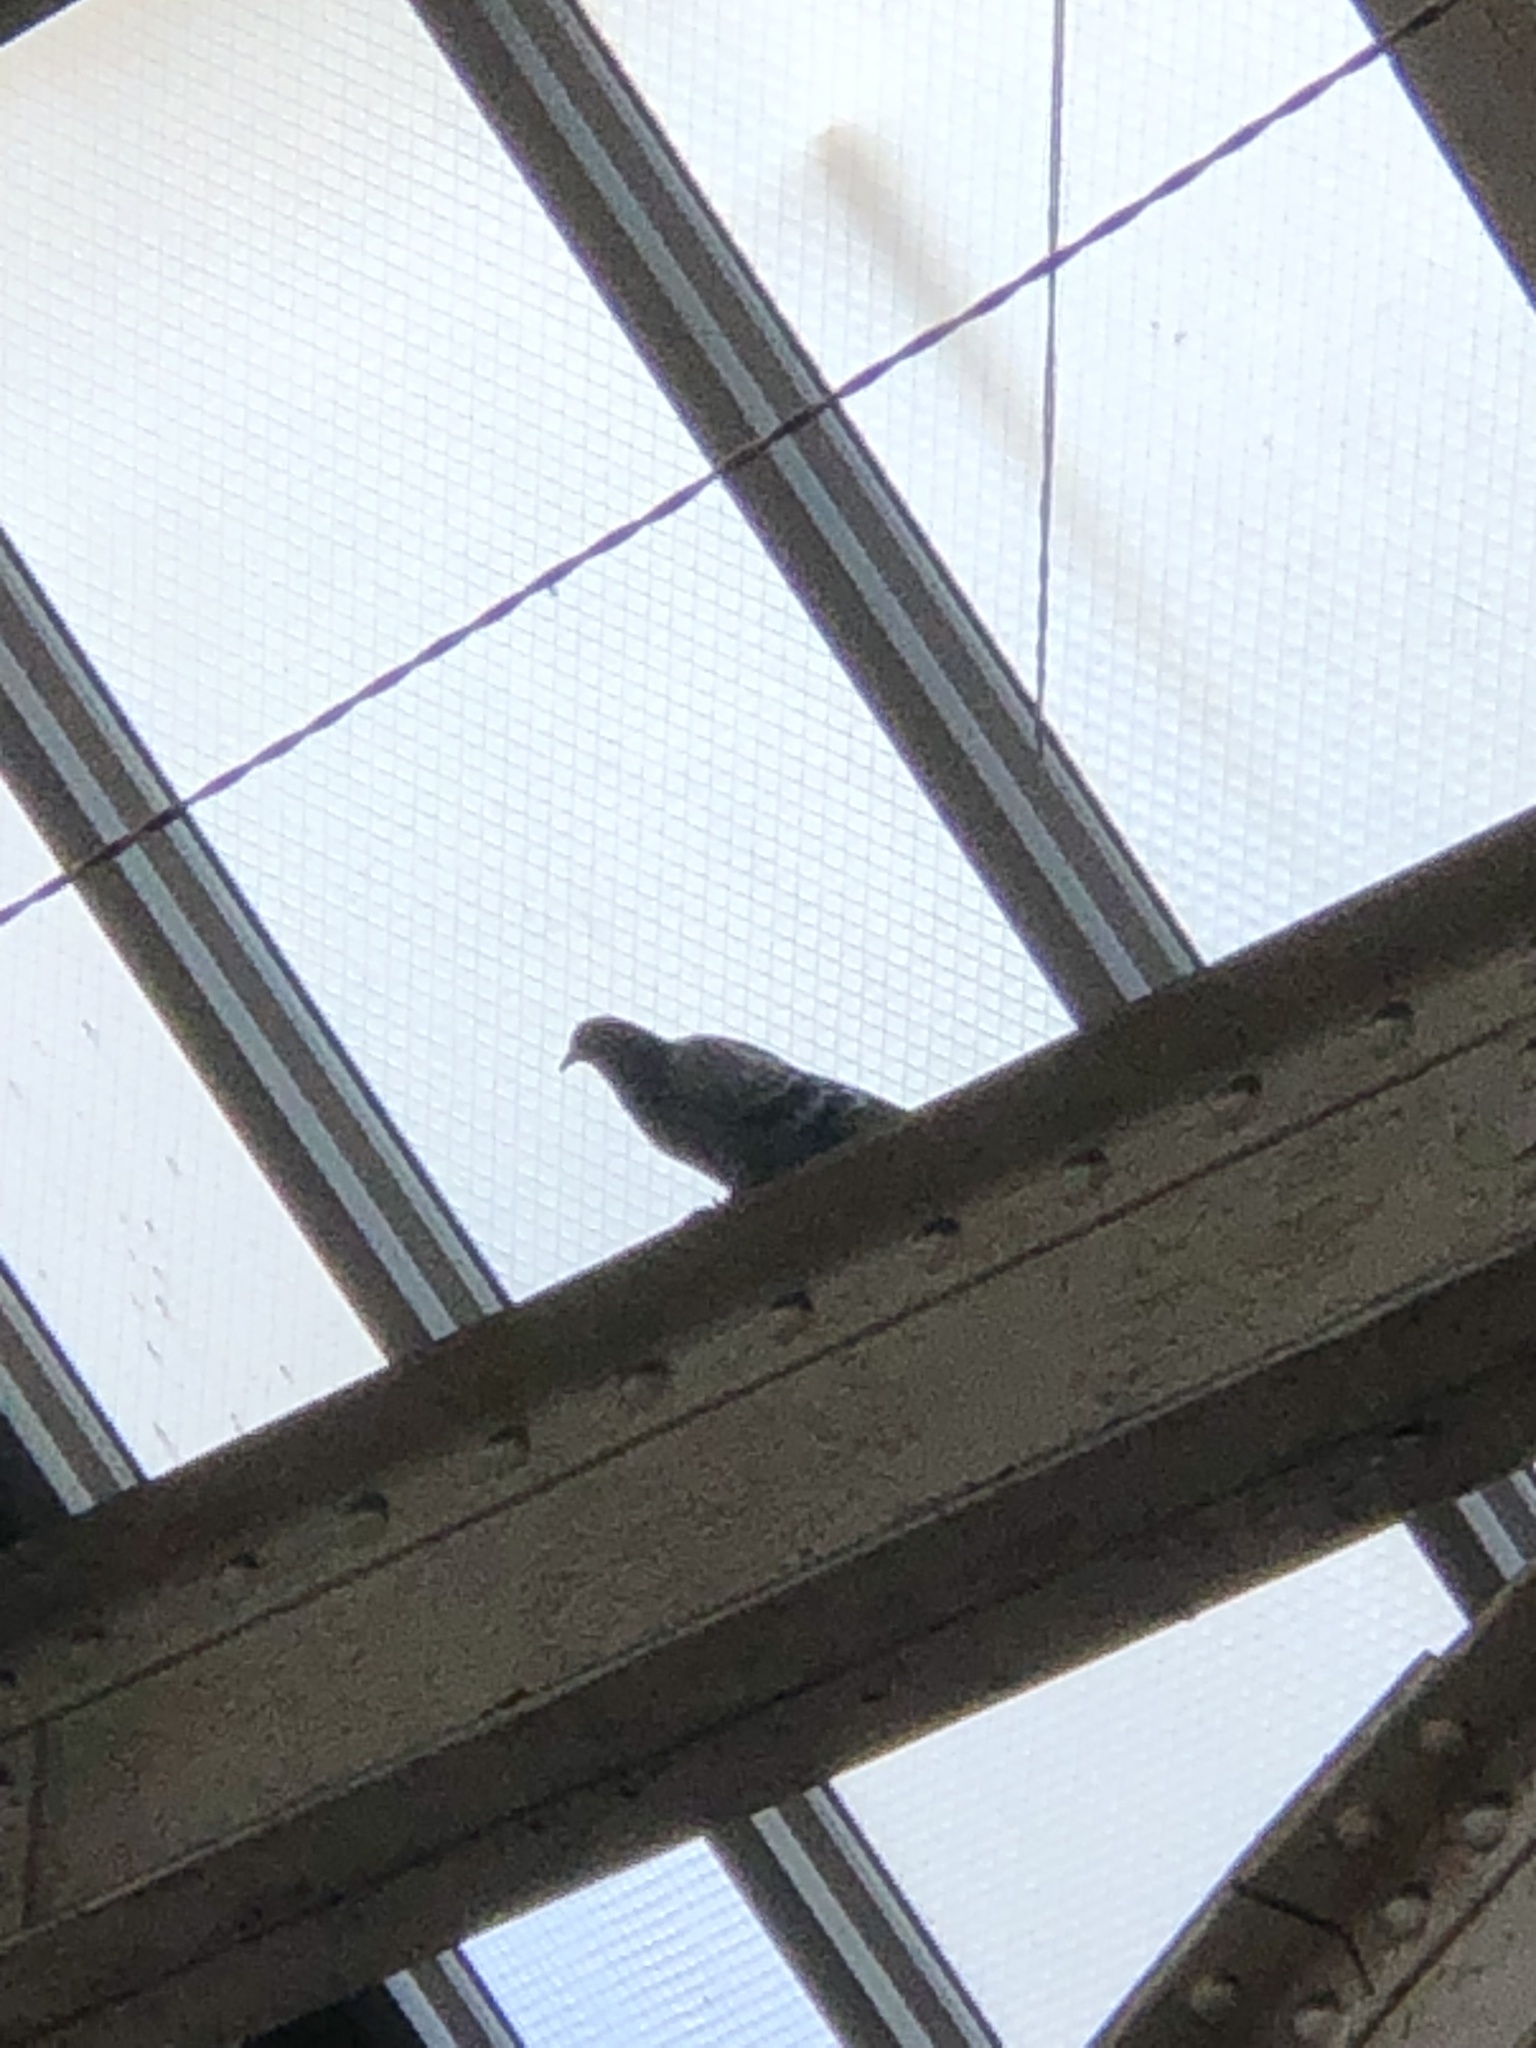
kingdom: Animalia
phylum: Chordata
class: Aves
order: Columbiformes
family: Columbidae
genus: Columba
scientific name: Columba livia
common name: Rock pigeon
